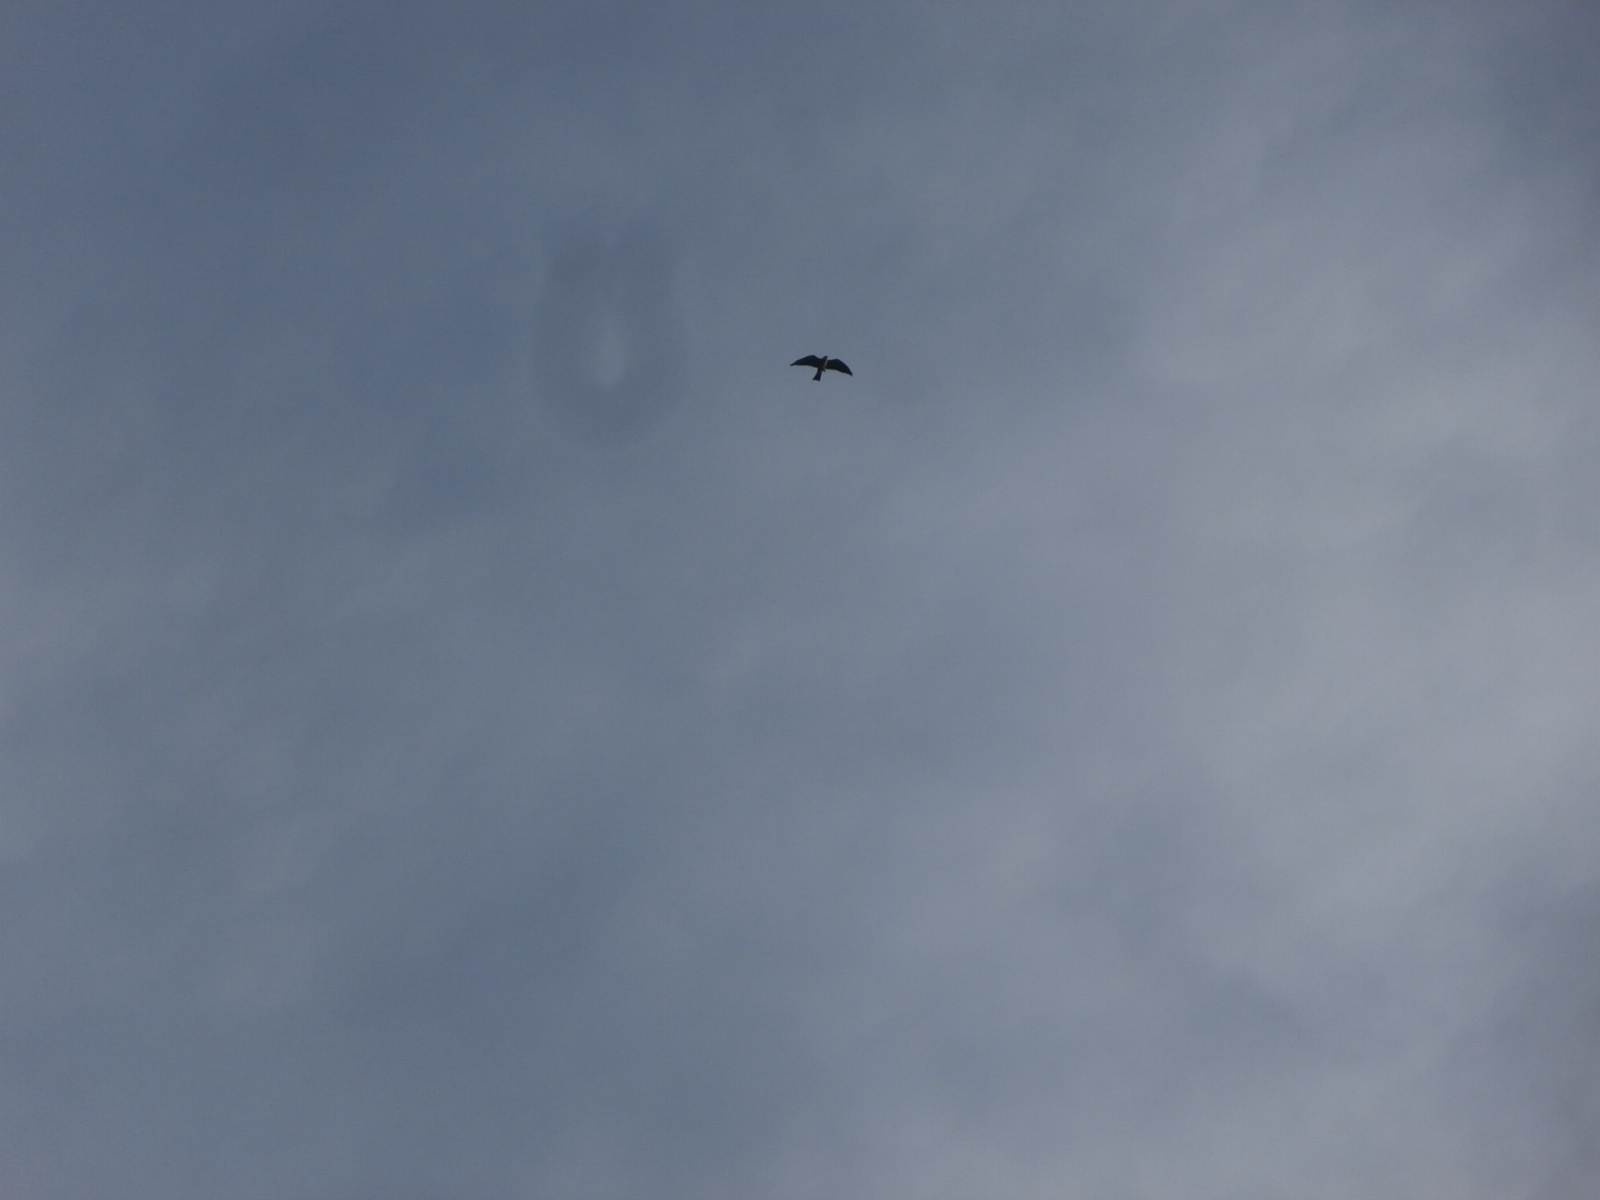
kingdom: Animalia
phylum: Chordata
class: Aves
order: Accipitriformes
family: Accipitridae
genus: Ictinia
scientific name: Ictinia mississippiensis
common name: Mississippi kite
